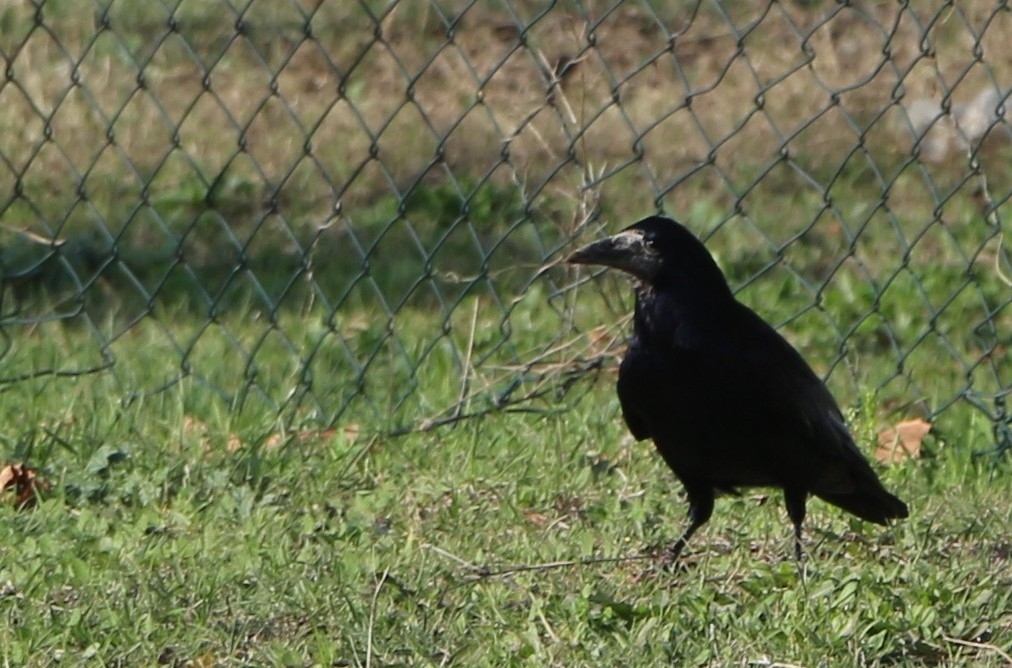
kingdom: Animalia
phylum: Chordata
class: Aves
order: Passeriformes
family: Corvidae
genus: Corvus
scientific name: Corvus frugilegus
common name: Rook
